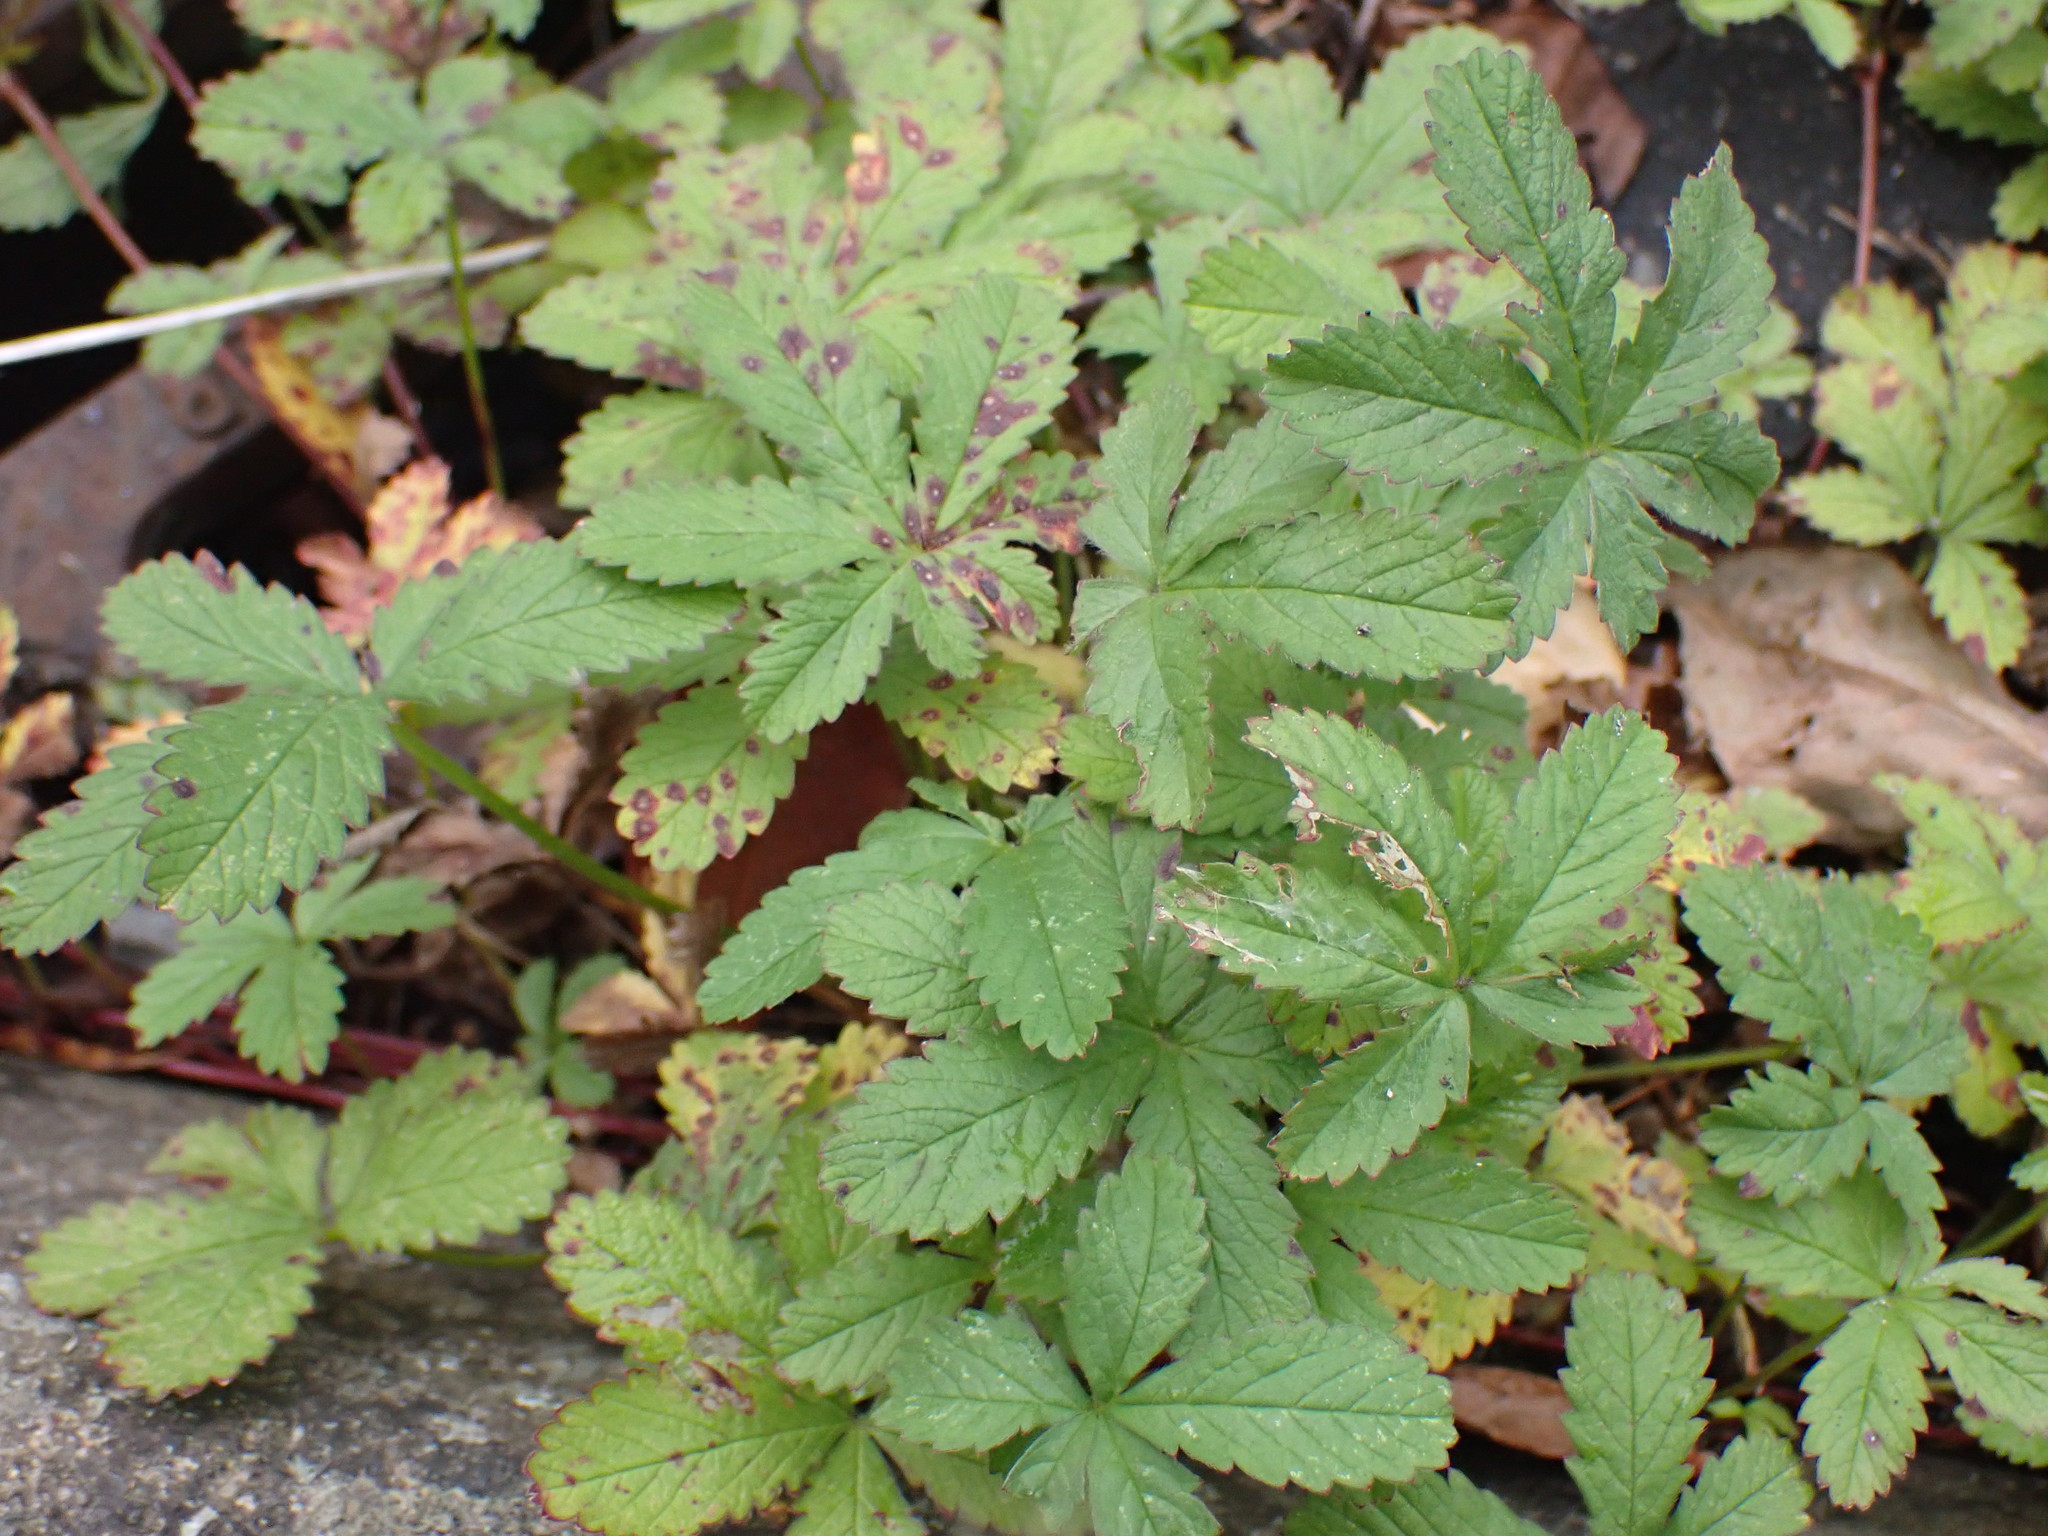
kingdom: Plantae
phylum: Tracheophyta
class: Magnoliopsida
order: Rosales
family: Rosaceae
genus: Potentilla
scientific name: Potentilla reptans
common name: Creeping cinquefoil
